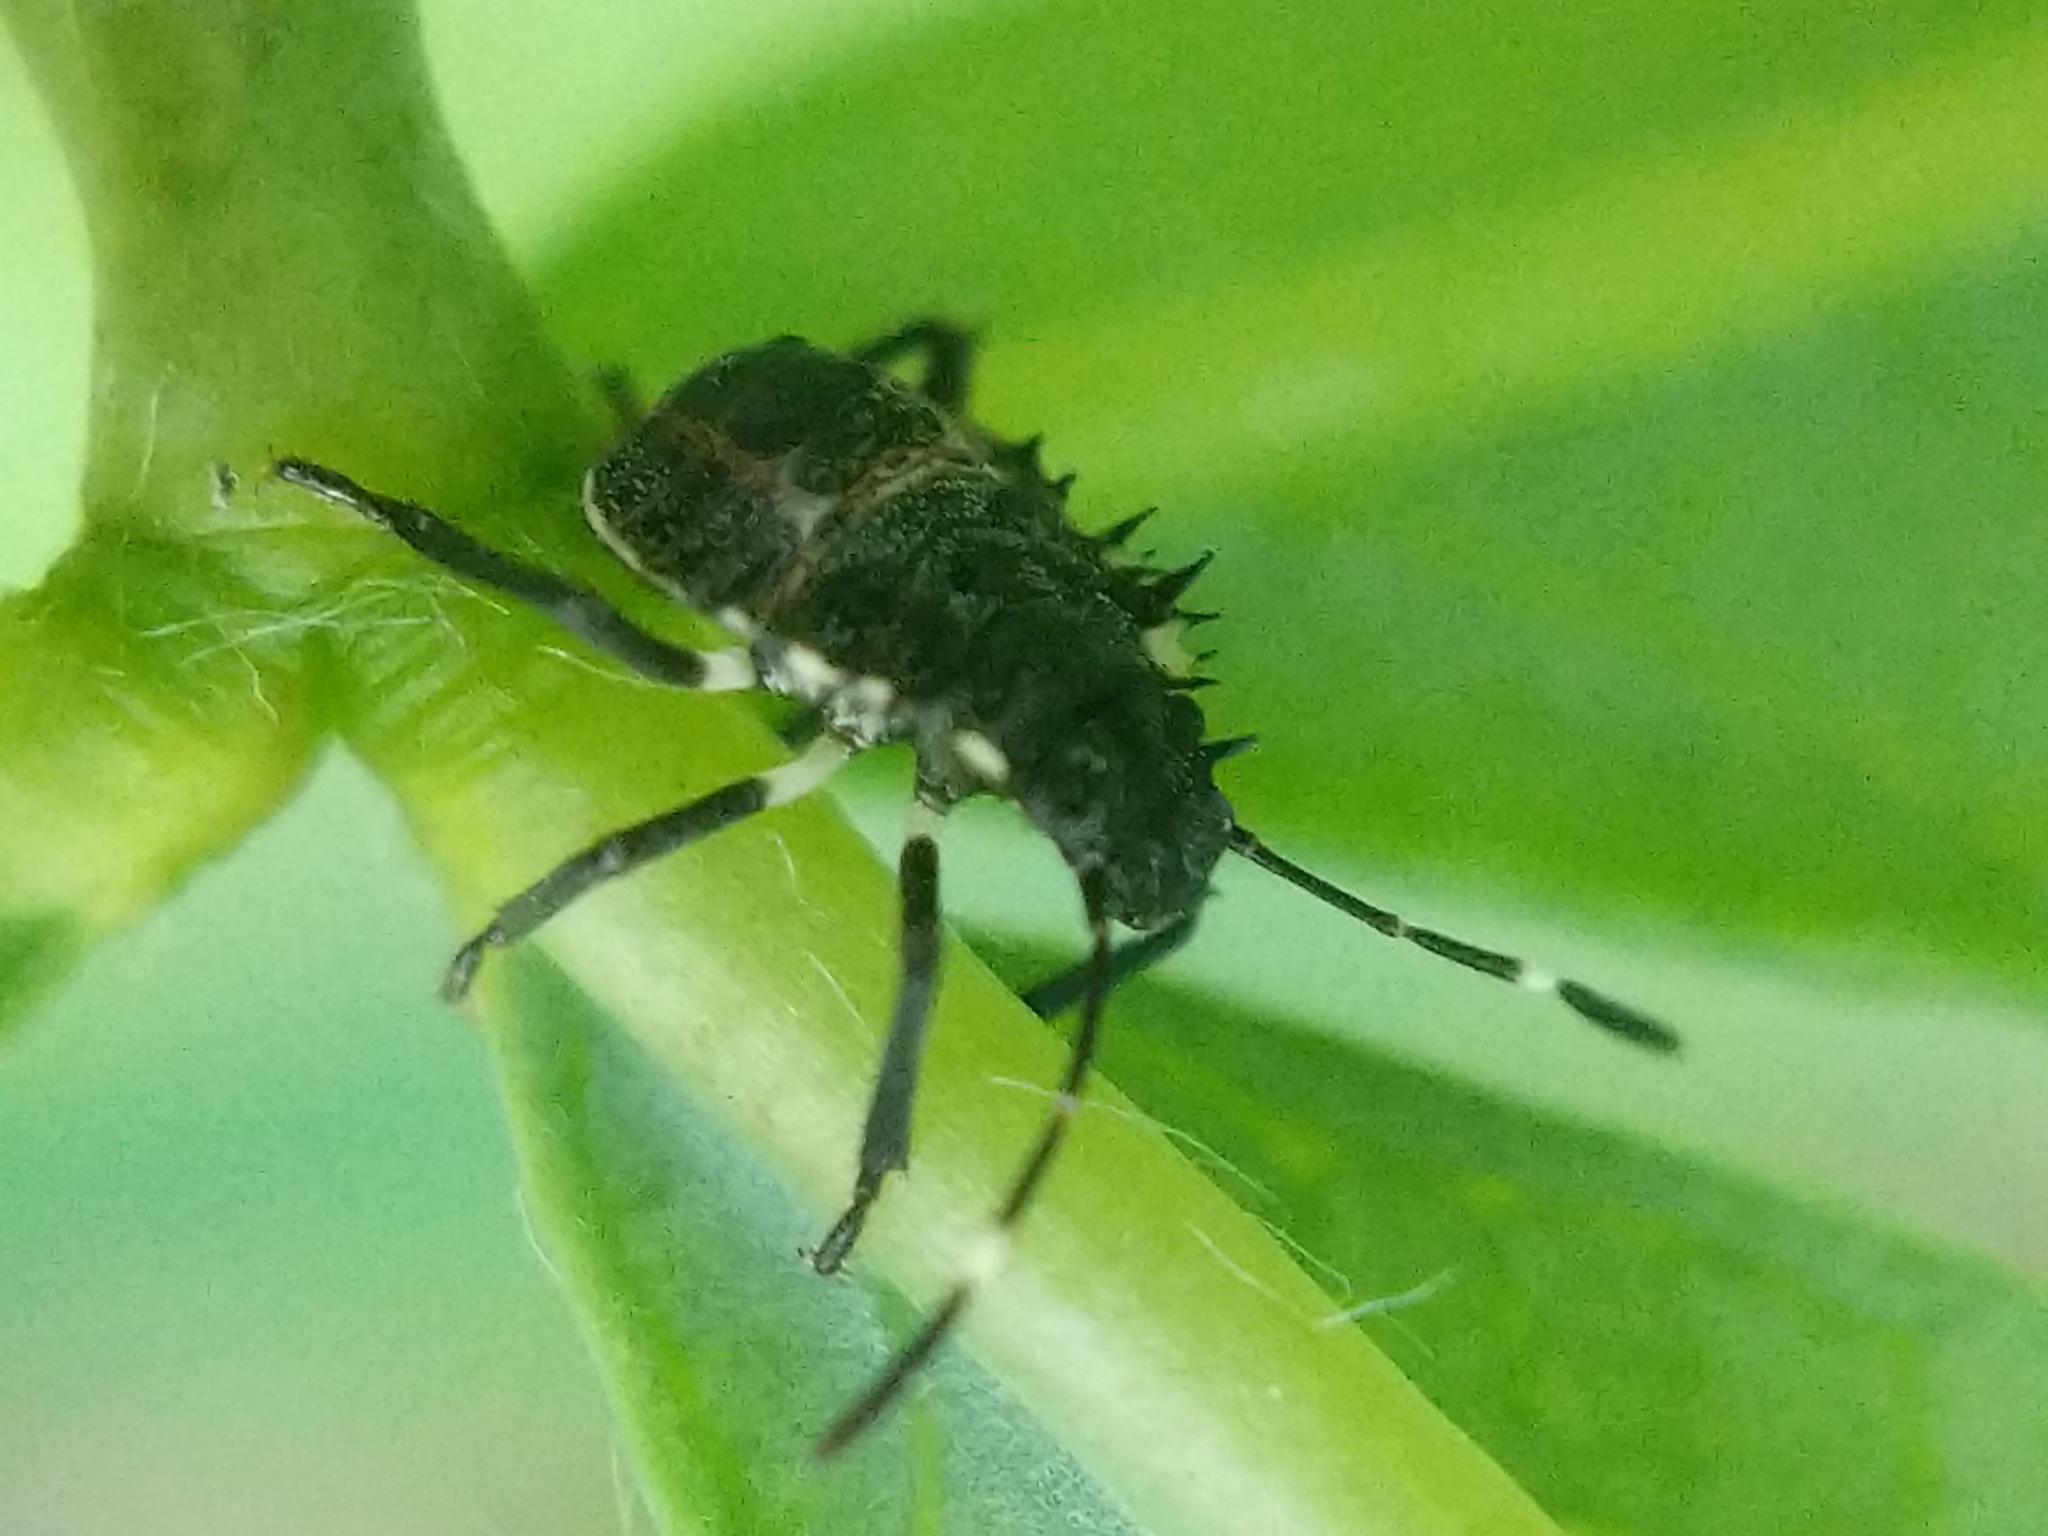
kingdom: Animalia
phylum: Arthropoda
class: Insecta
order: Hemiptera
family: Pentatomidae
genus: Halyomorpha
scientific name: Halyomorpha halys
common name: Brown marmorated stink bug
